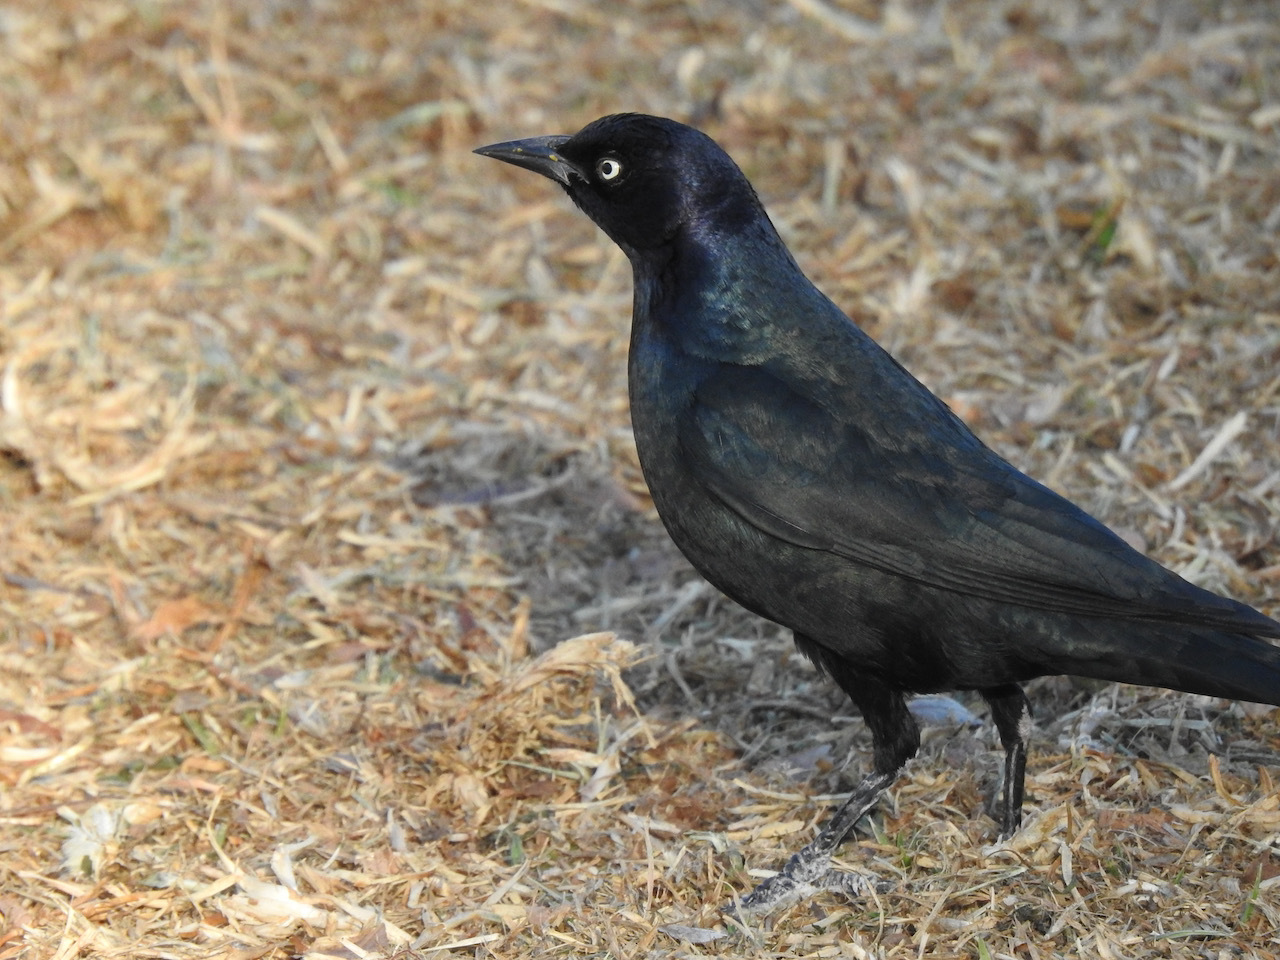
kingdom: Animalia
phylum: Chordata
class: Aves
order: Passeriformes
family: Icteridae
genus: Euphagus
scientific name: Euphagus cyanocephalus
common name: Brewer's blackbird
